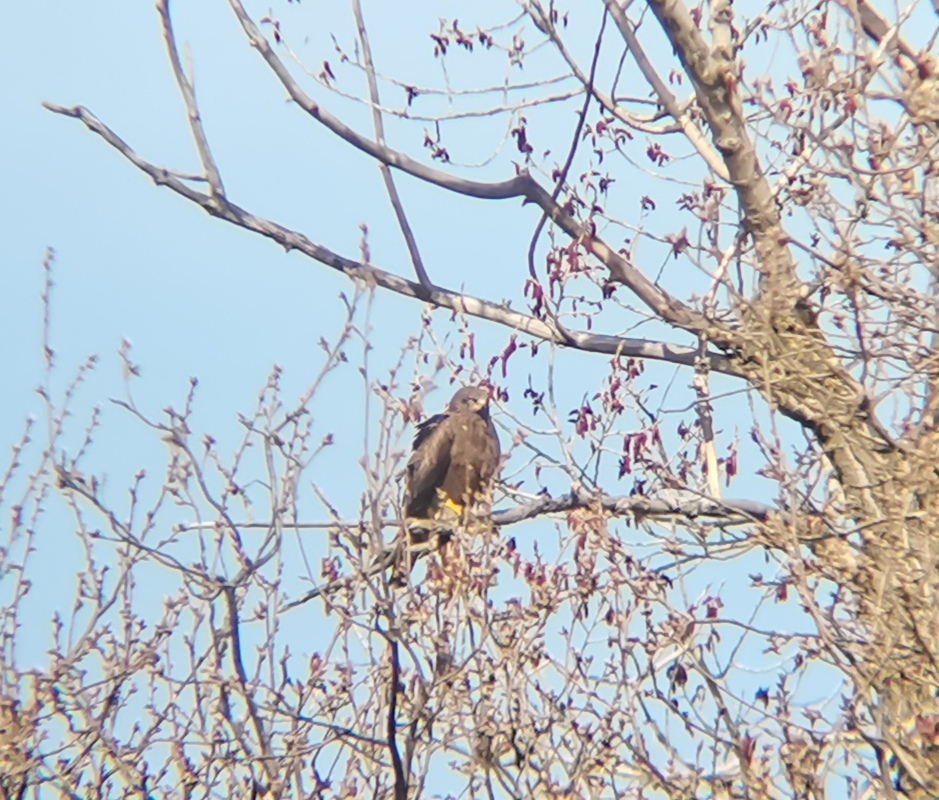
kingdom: Animalia
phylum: Chordata
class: Aves
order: Accipitriformes
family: Accipitridae
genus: Milvus
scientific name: Milvus migrans
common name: Black kite
